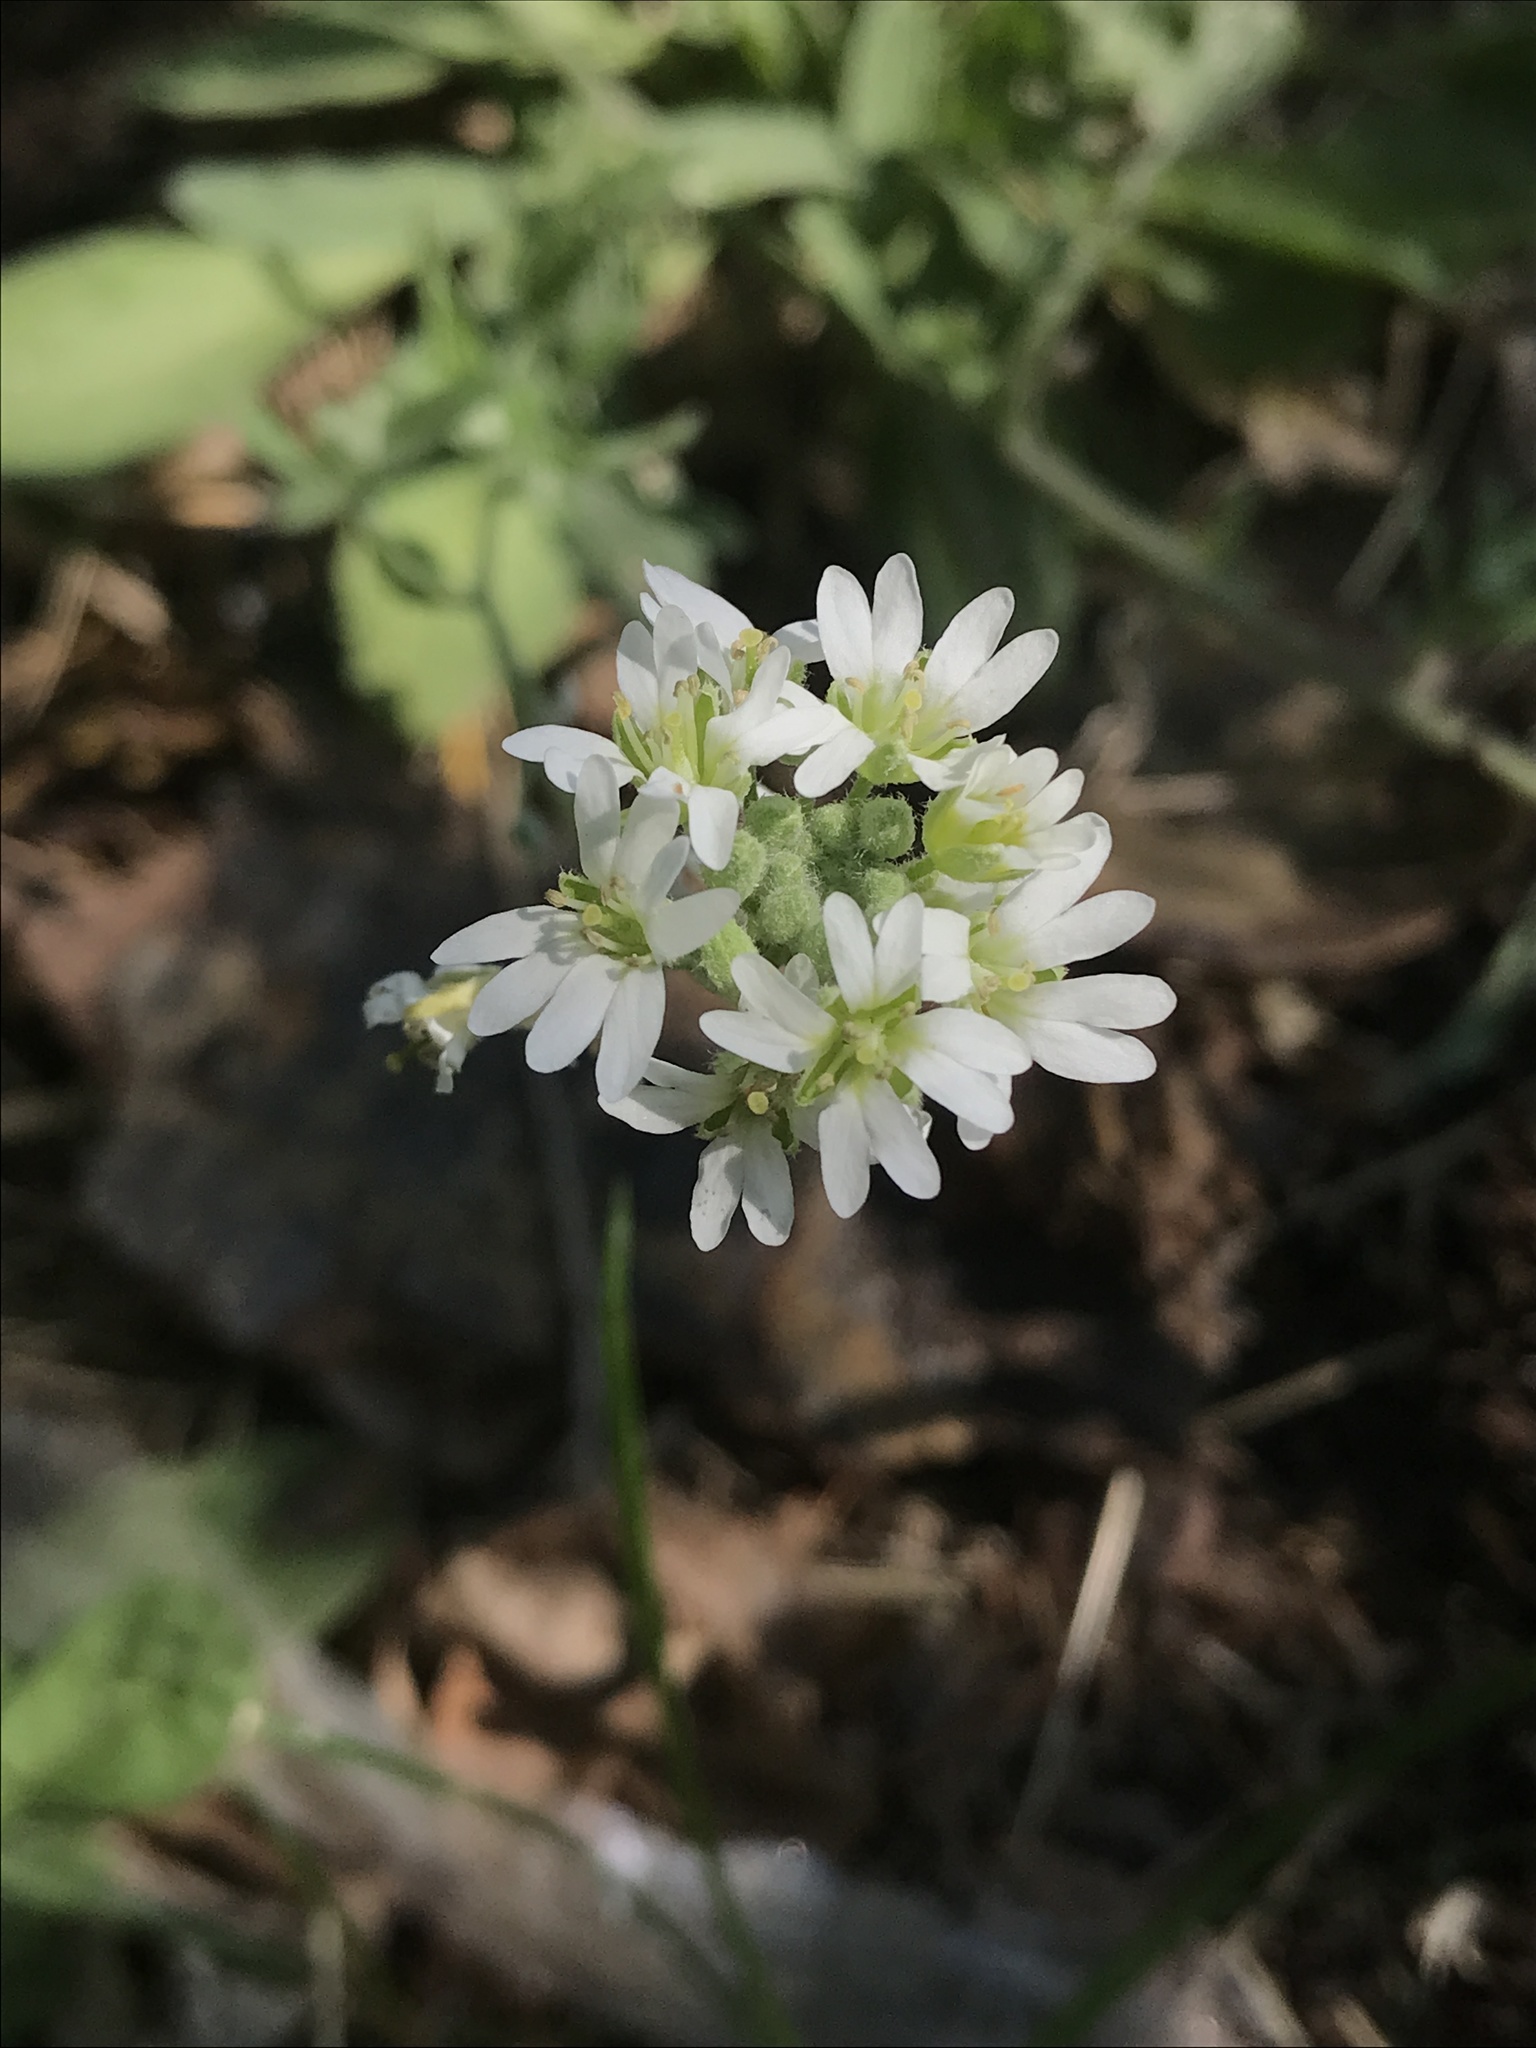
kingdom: Plantae
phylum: Tracheophyta
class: Magnoliopsida
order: Brassicales
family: Brassicaceae
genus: Berteroa
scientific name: Berteroa incana
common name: Hoary alison
